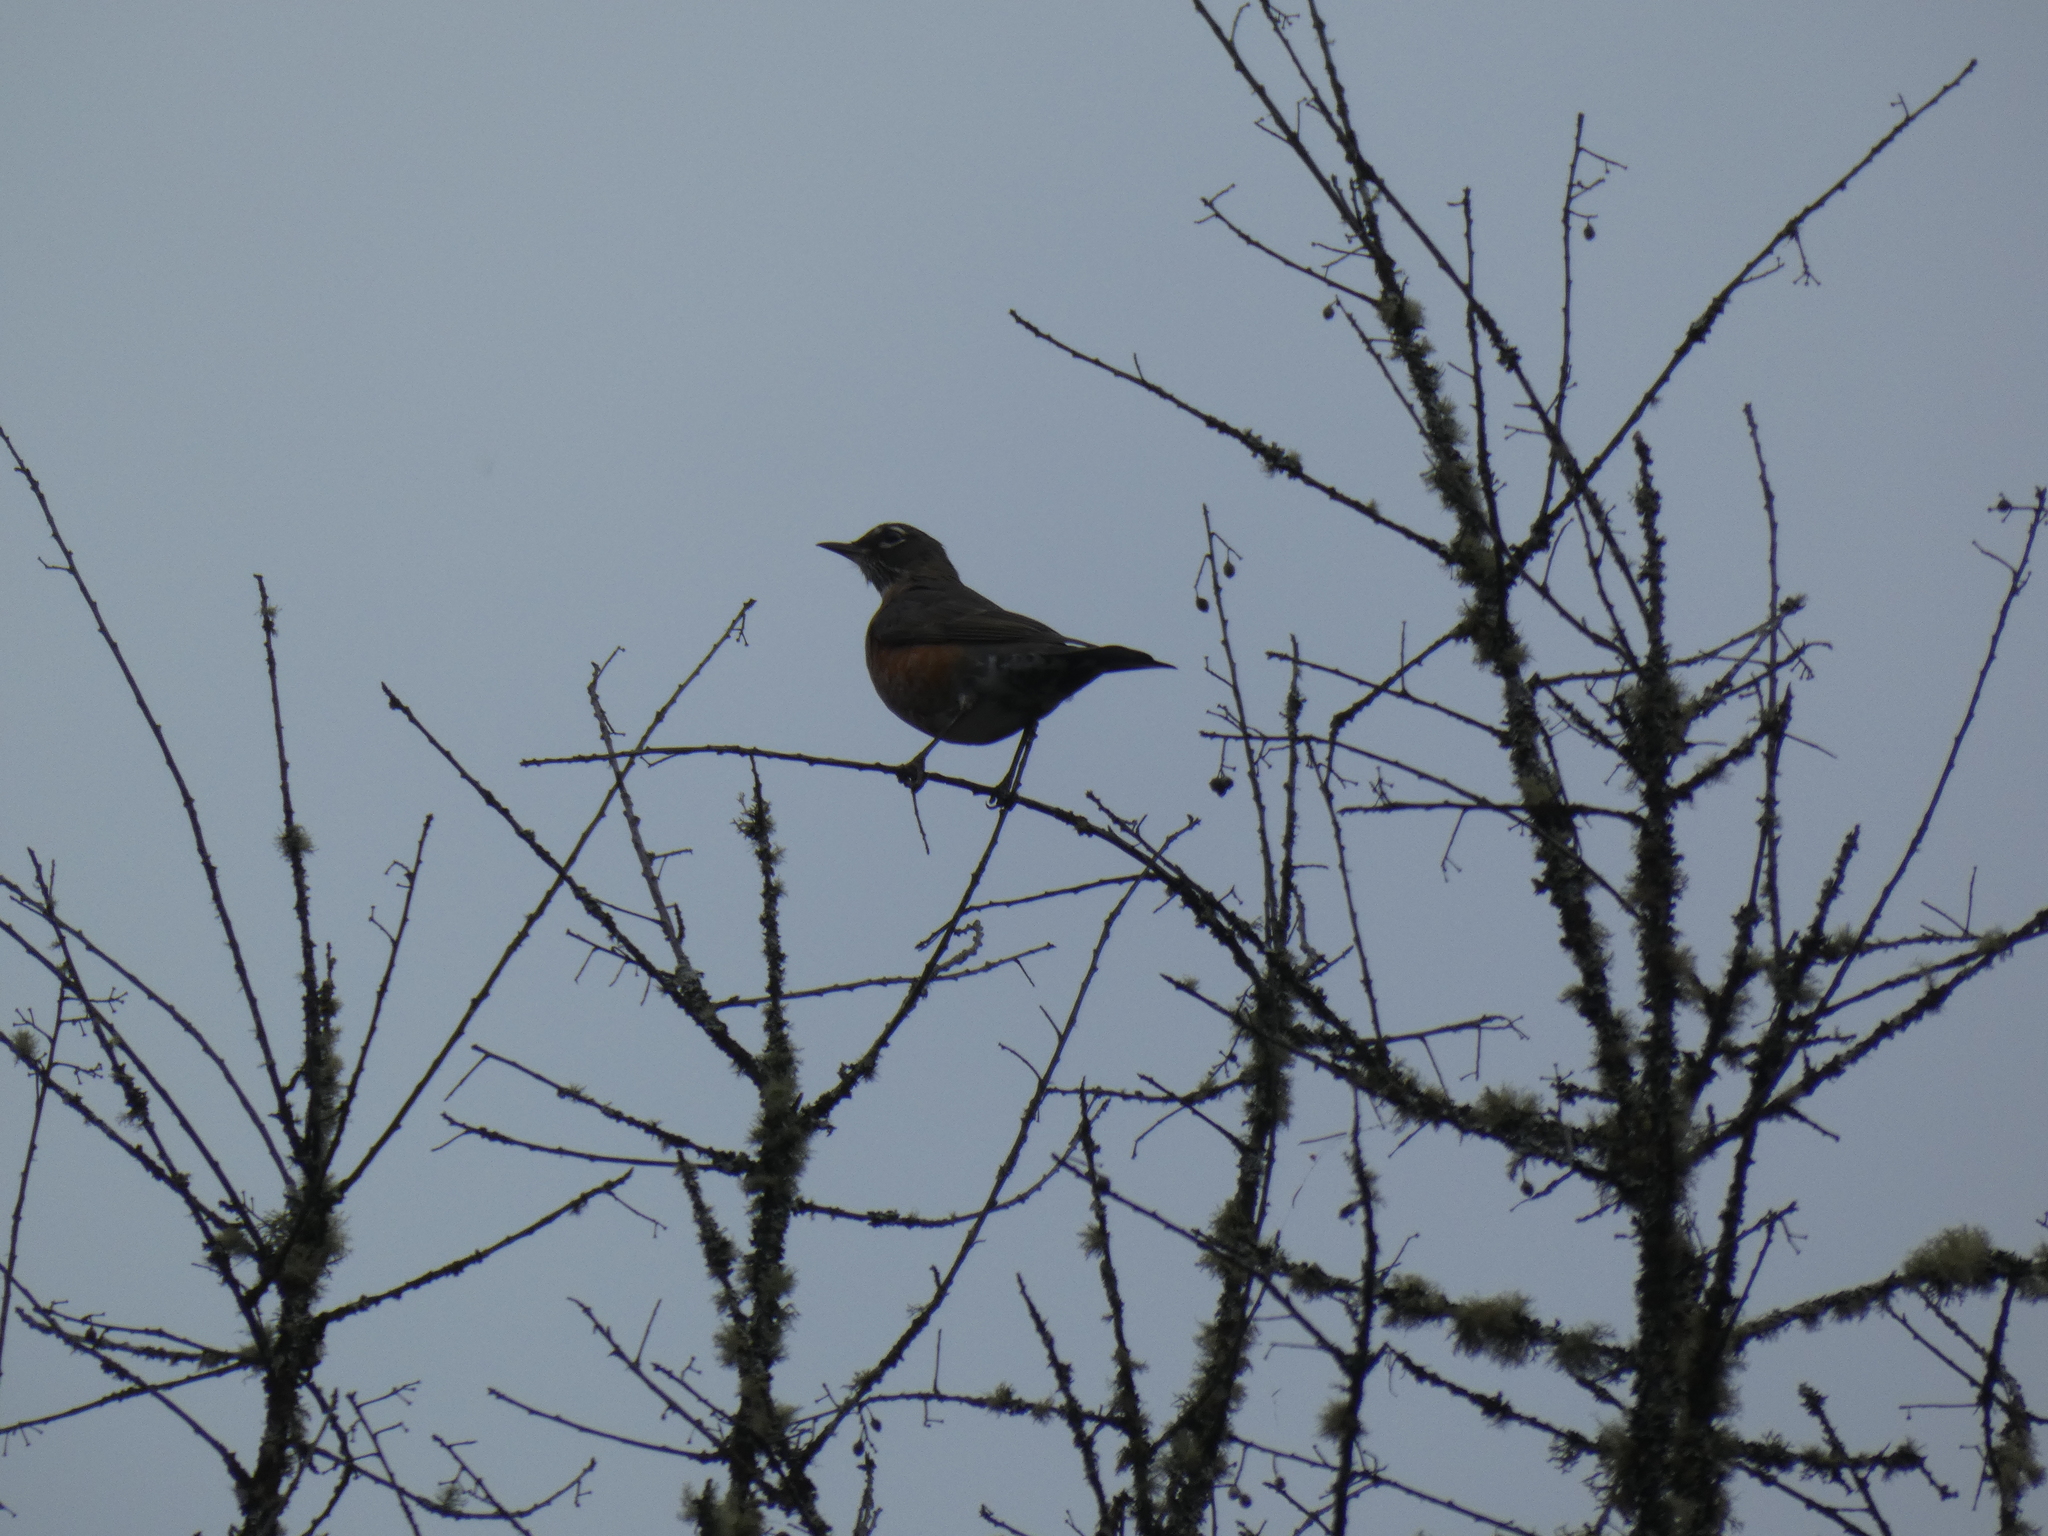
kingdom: Animalia
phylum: Chordata
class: Aves
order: Passeriformes
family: Turdidae
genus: Turdus
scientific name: Turdus migratorius
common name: American robin
